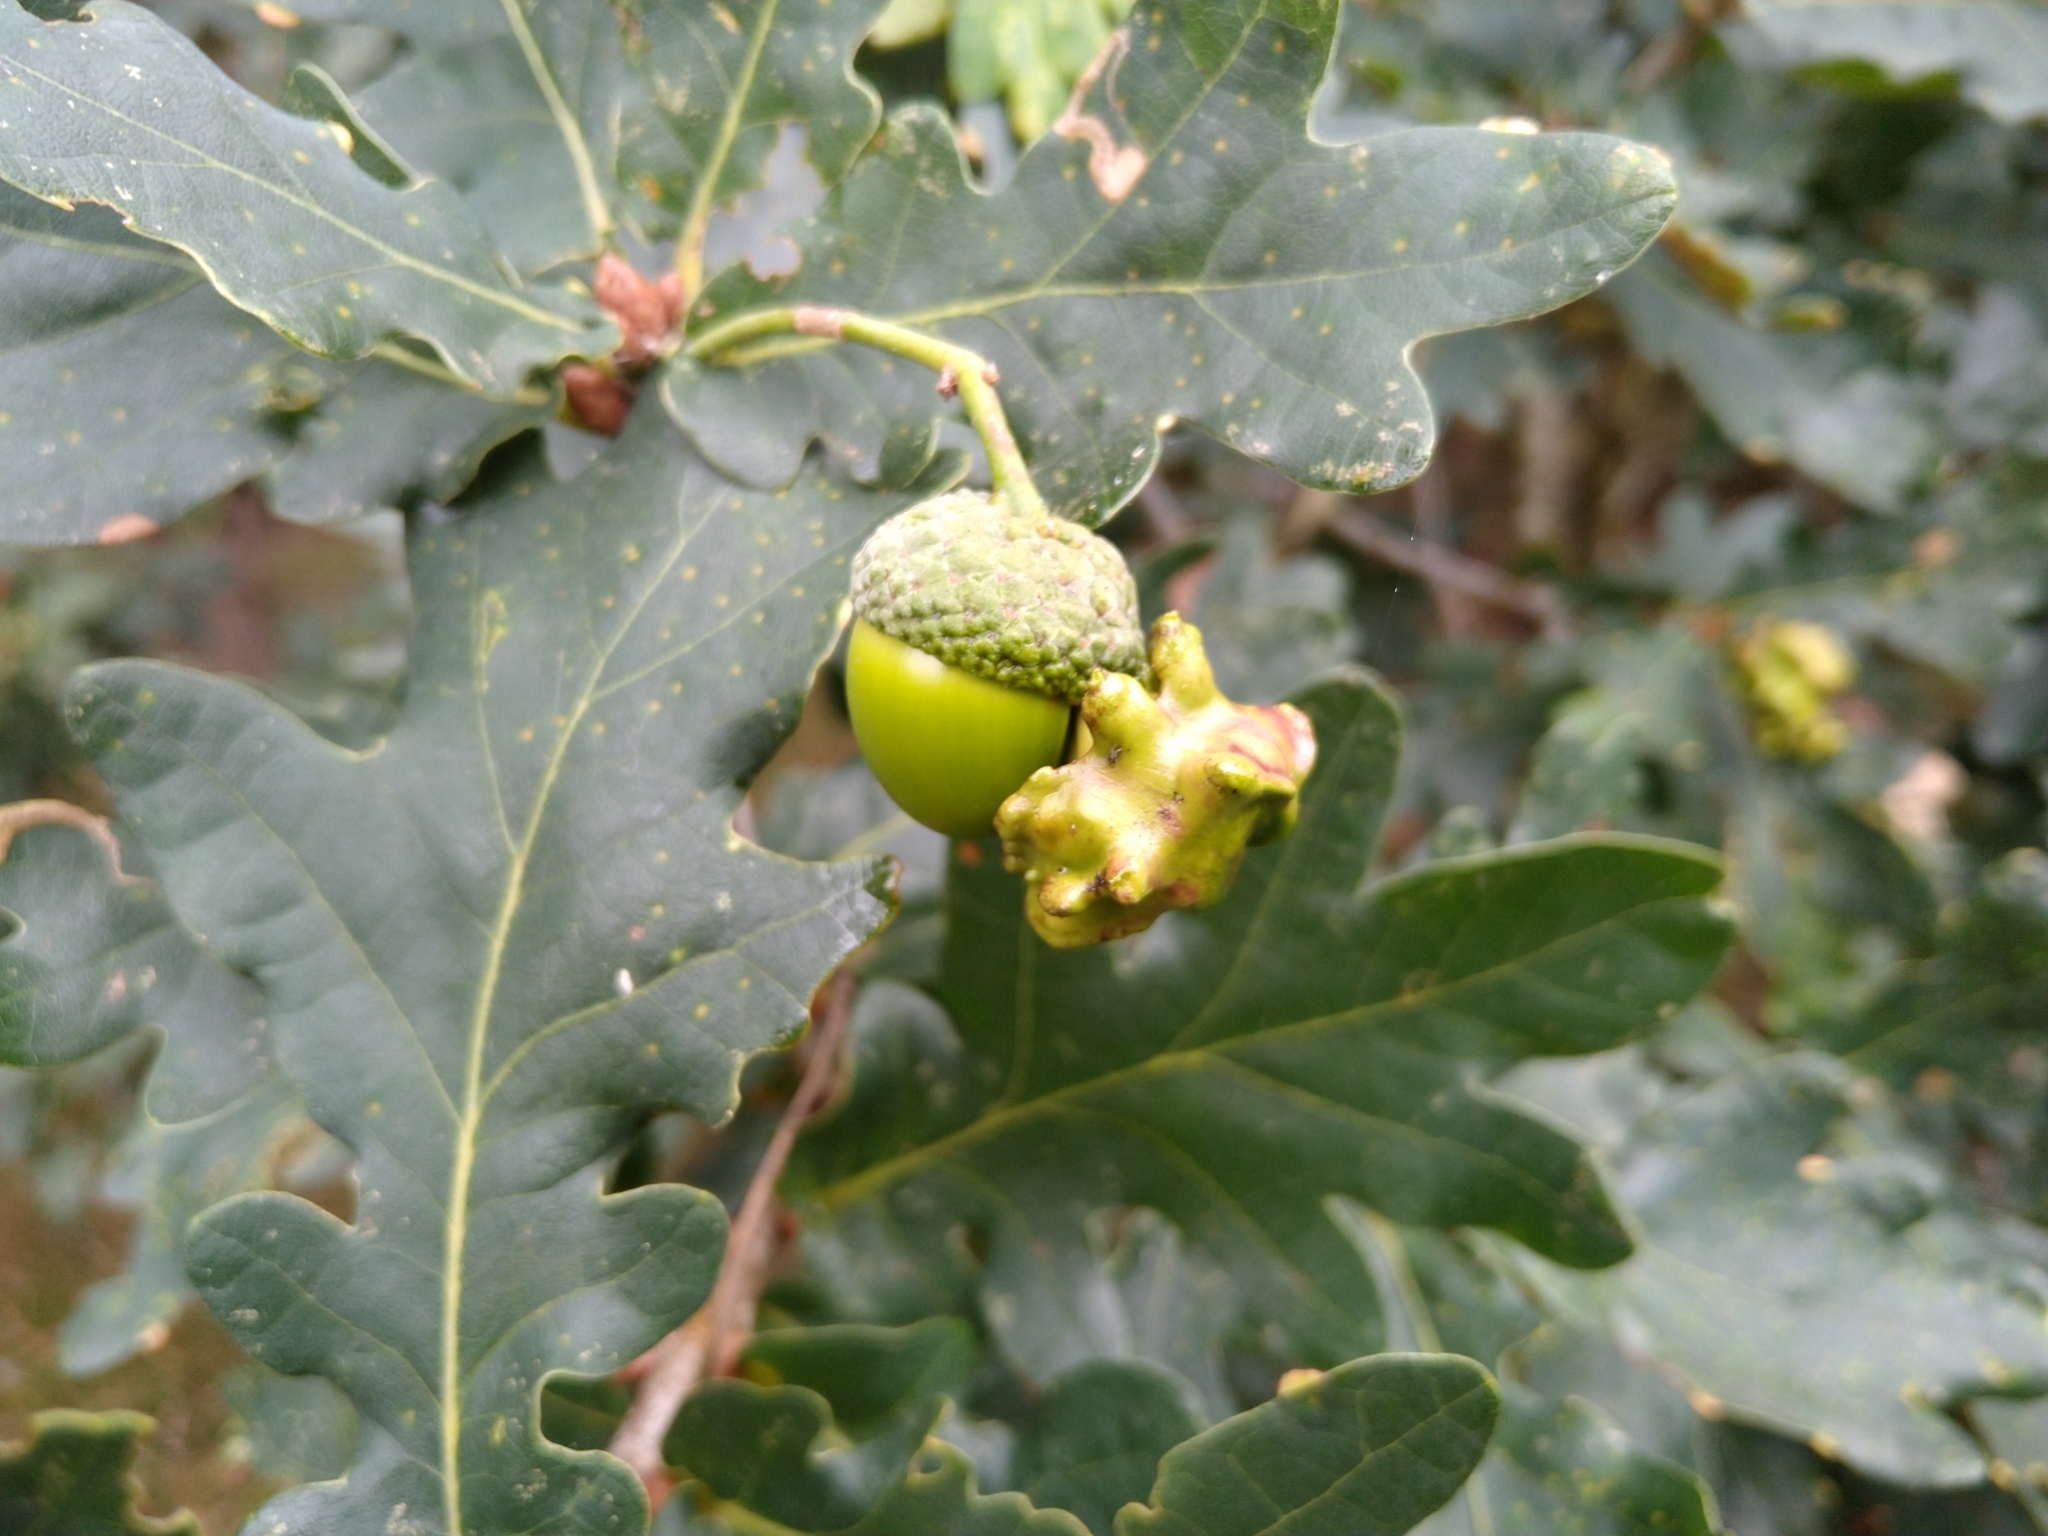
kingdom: Animalia
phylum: Arthropoda
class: Insecta
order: Hymenoptera
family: Cynipidae
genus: Andricus
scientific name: Andricus quercuscalicis
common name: Knopper gall
